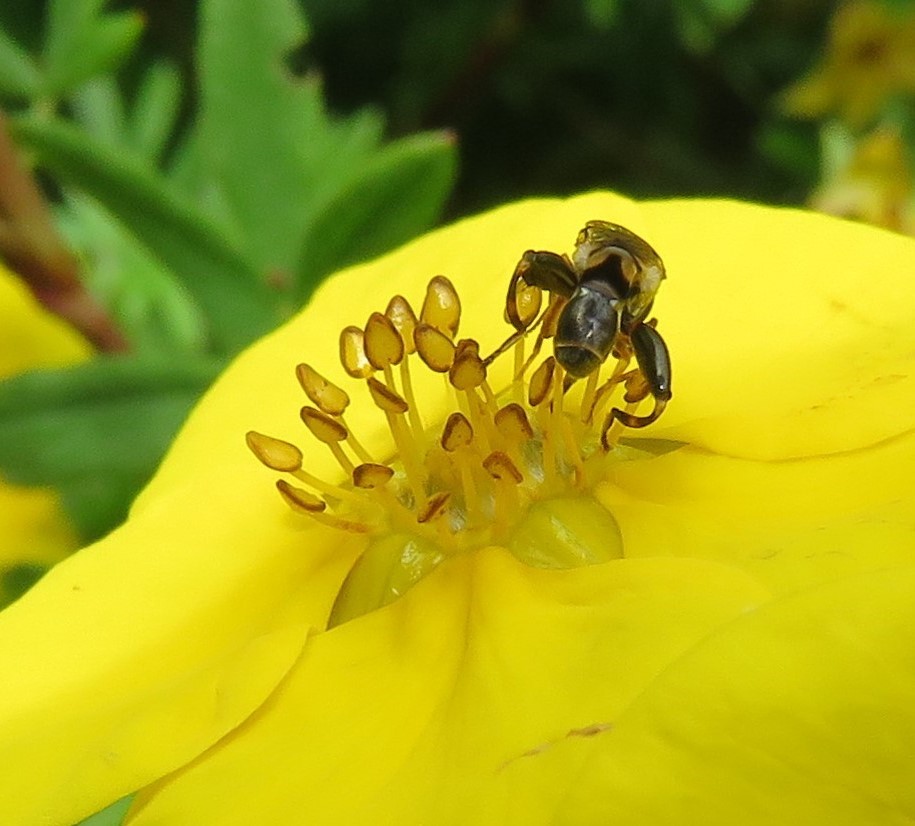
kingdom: Animalia
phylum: Arthropoda
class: Insecta
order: Diptera
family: Syrphidae
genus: Syritta
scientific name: Syritta pipiens
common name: Hover fly
